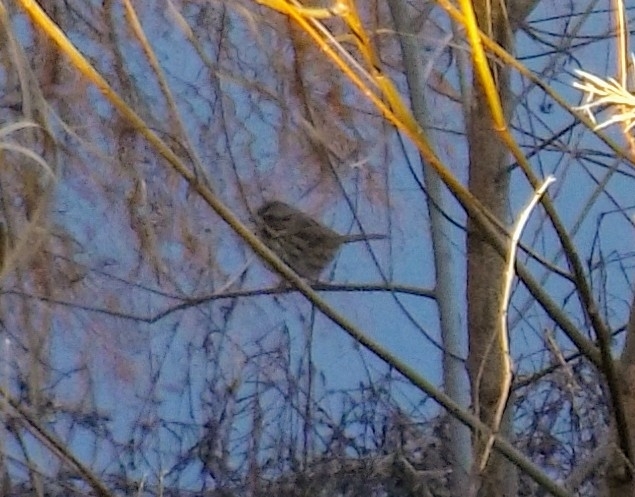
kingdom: Animalia
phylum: Chordata
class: Aves
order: Passeriformes
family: Passerellidae
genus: Melospiza
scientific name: Melospiza melodia
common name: Song sparrow
